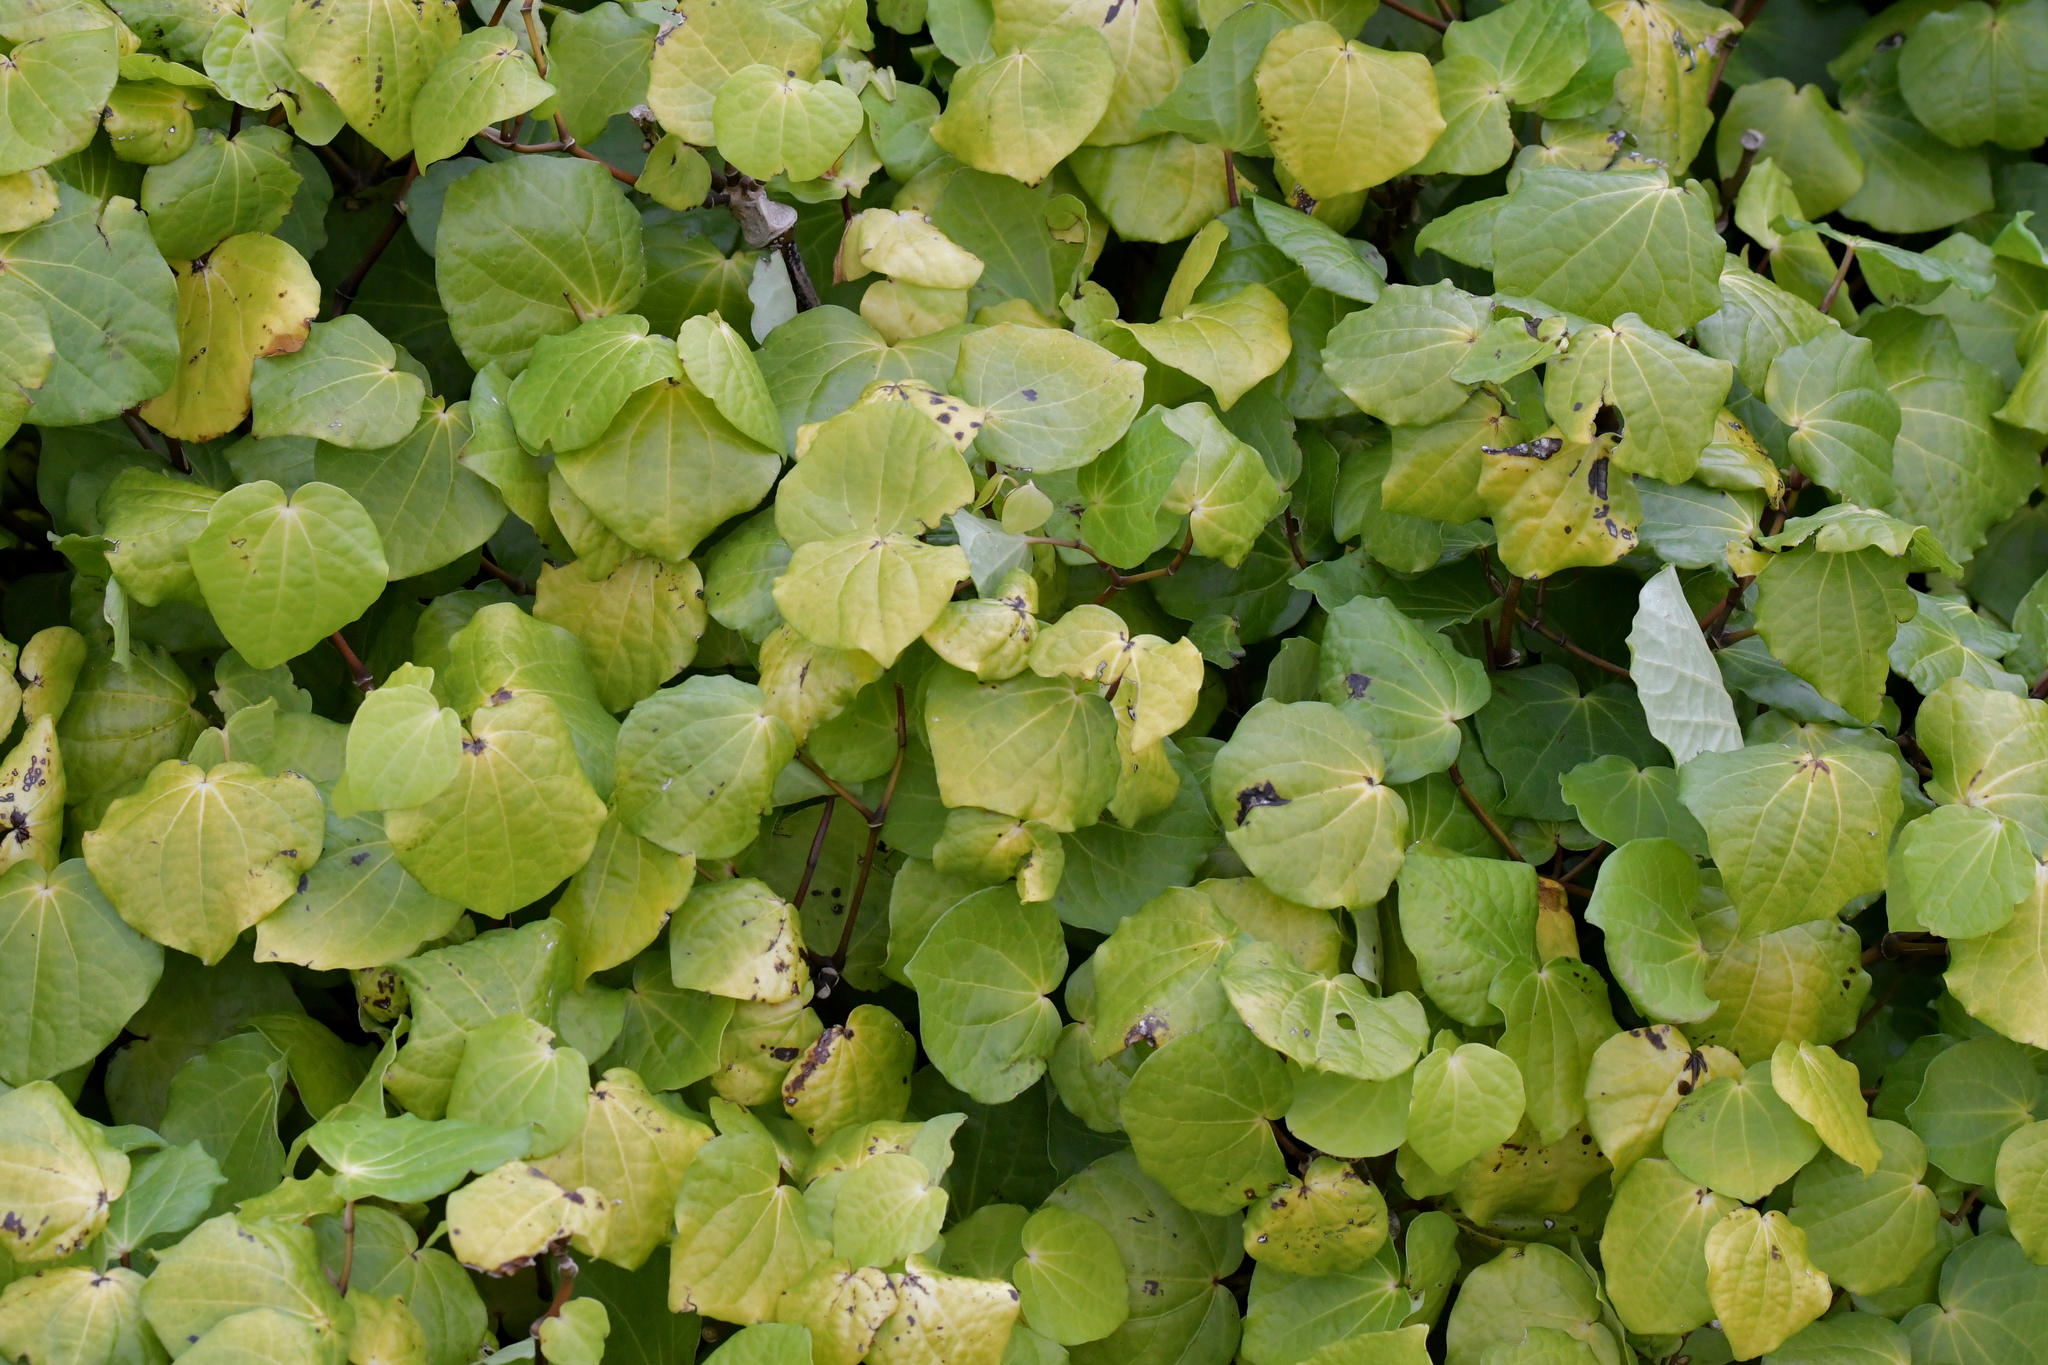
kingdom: Plantae
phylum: Tracheophyta
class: Magnoliopsida
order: Piperales
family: Piperaceae
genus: Macropiper
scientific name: Macropiper excelsum
